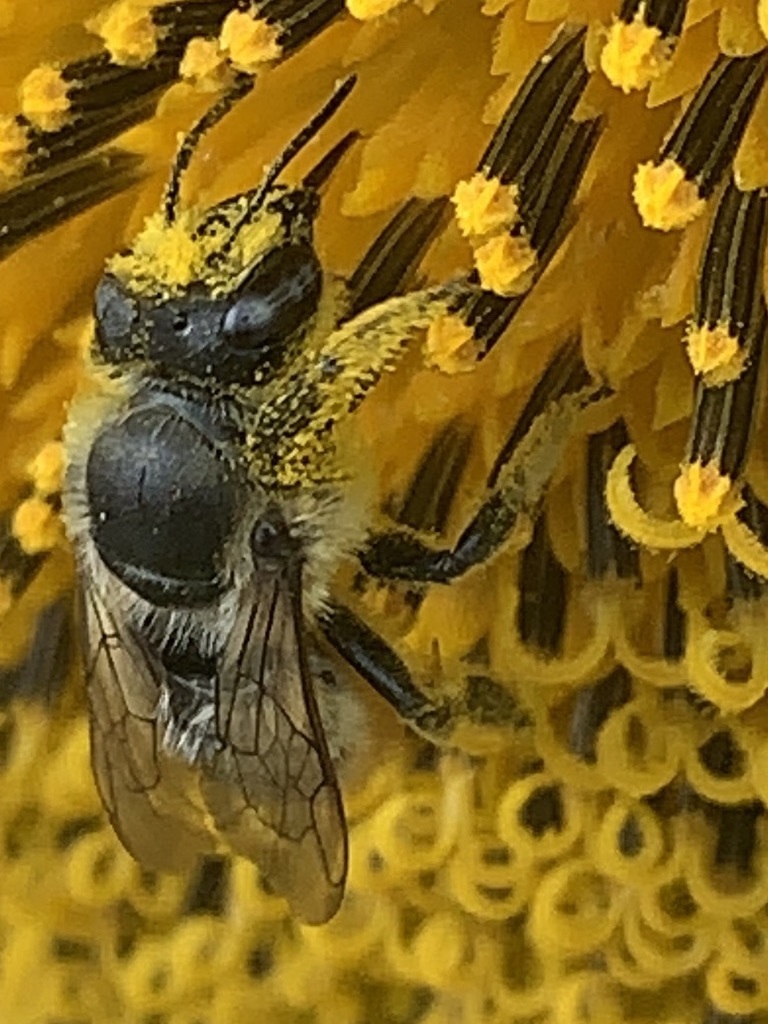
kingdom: Animalia
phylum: Arthropoda
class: Insecta
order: Hymenoptera
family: Megachilidae
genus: Megachile
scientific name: Megachile perihirta
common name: Western leafcutter
